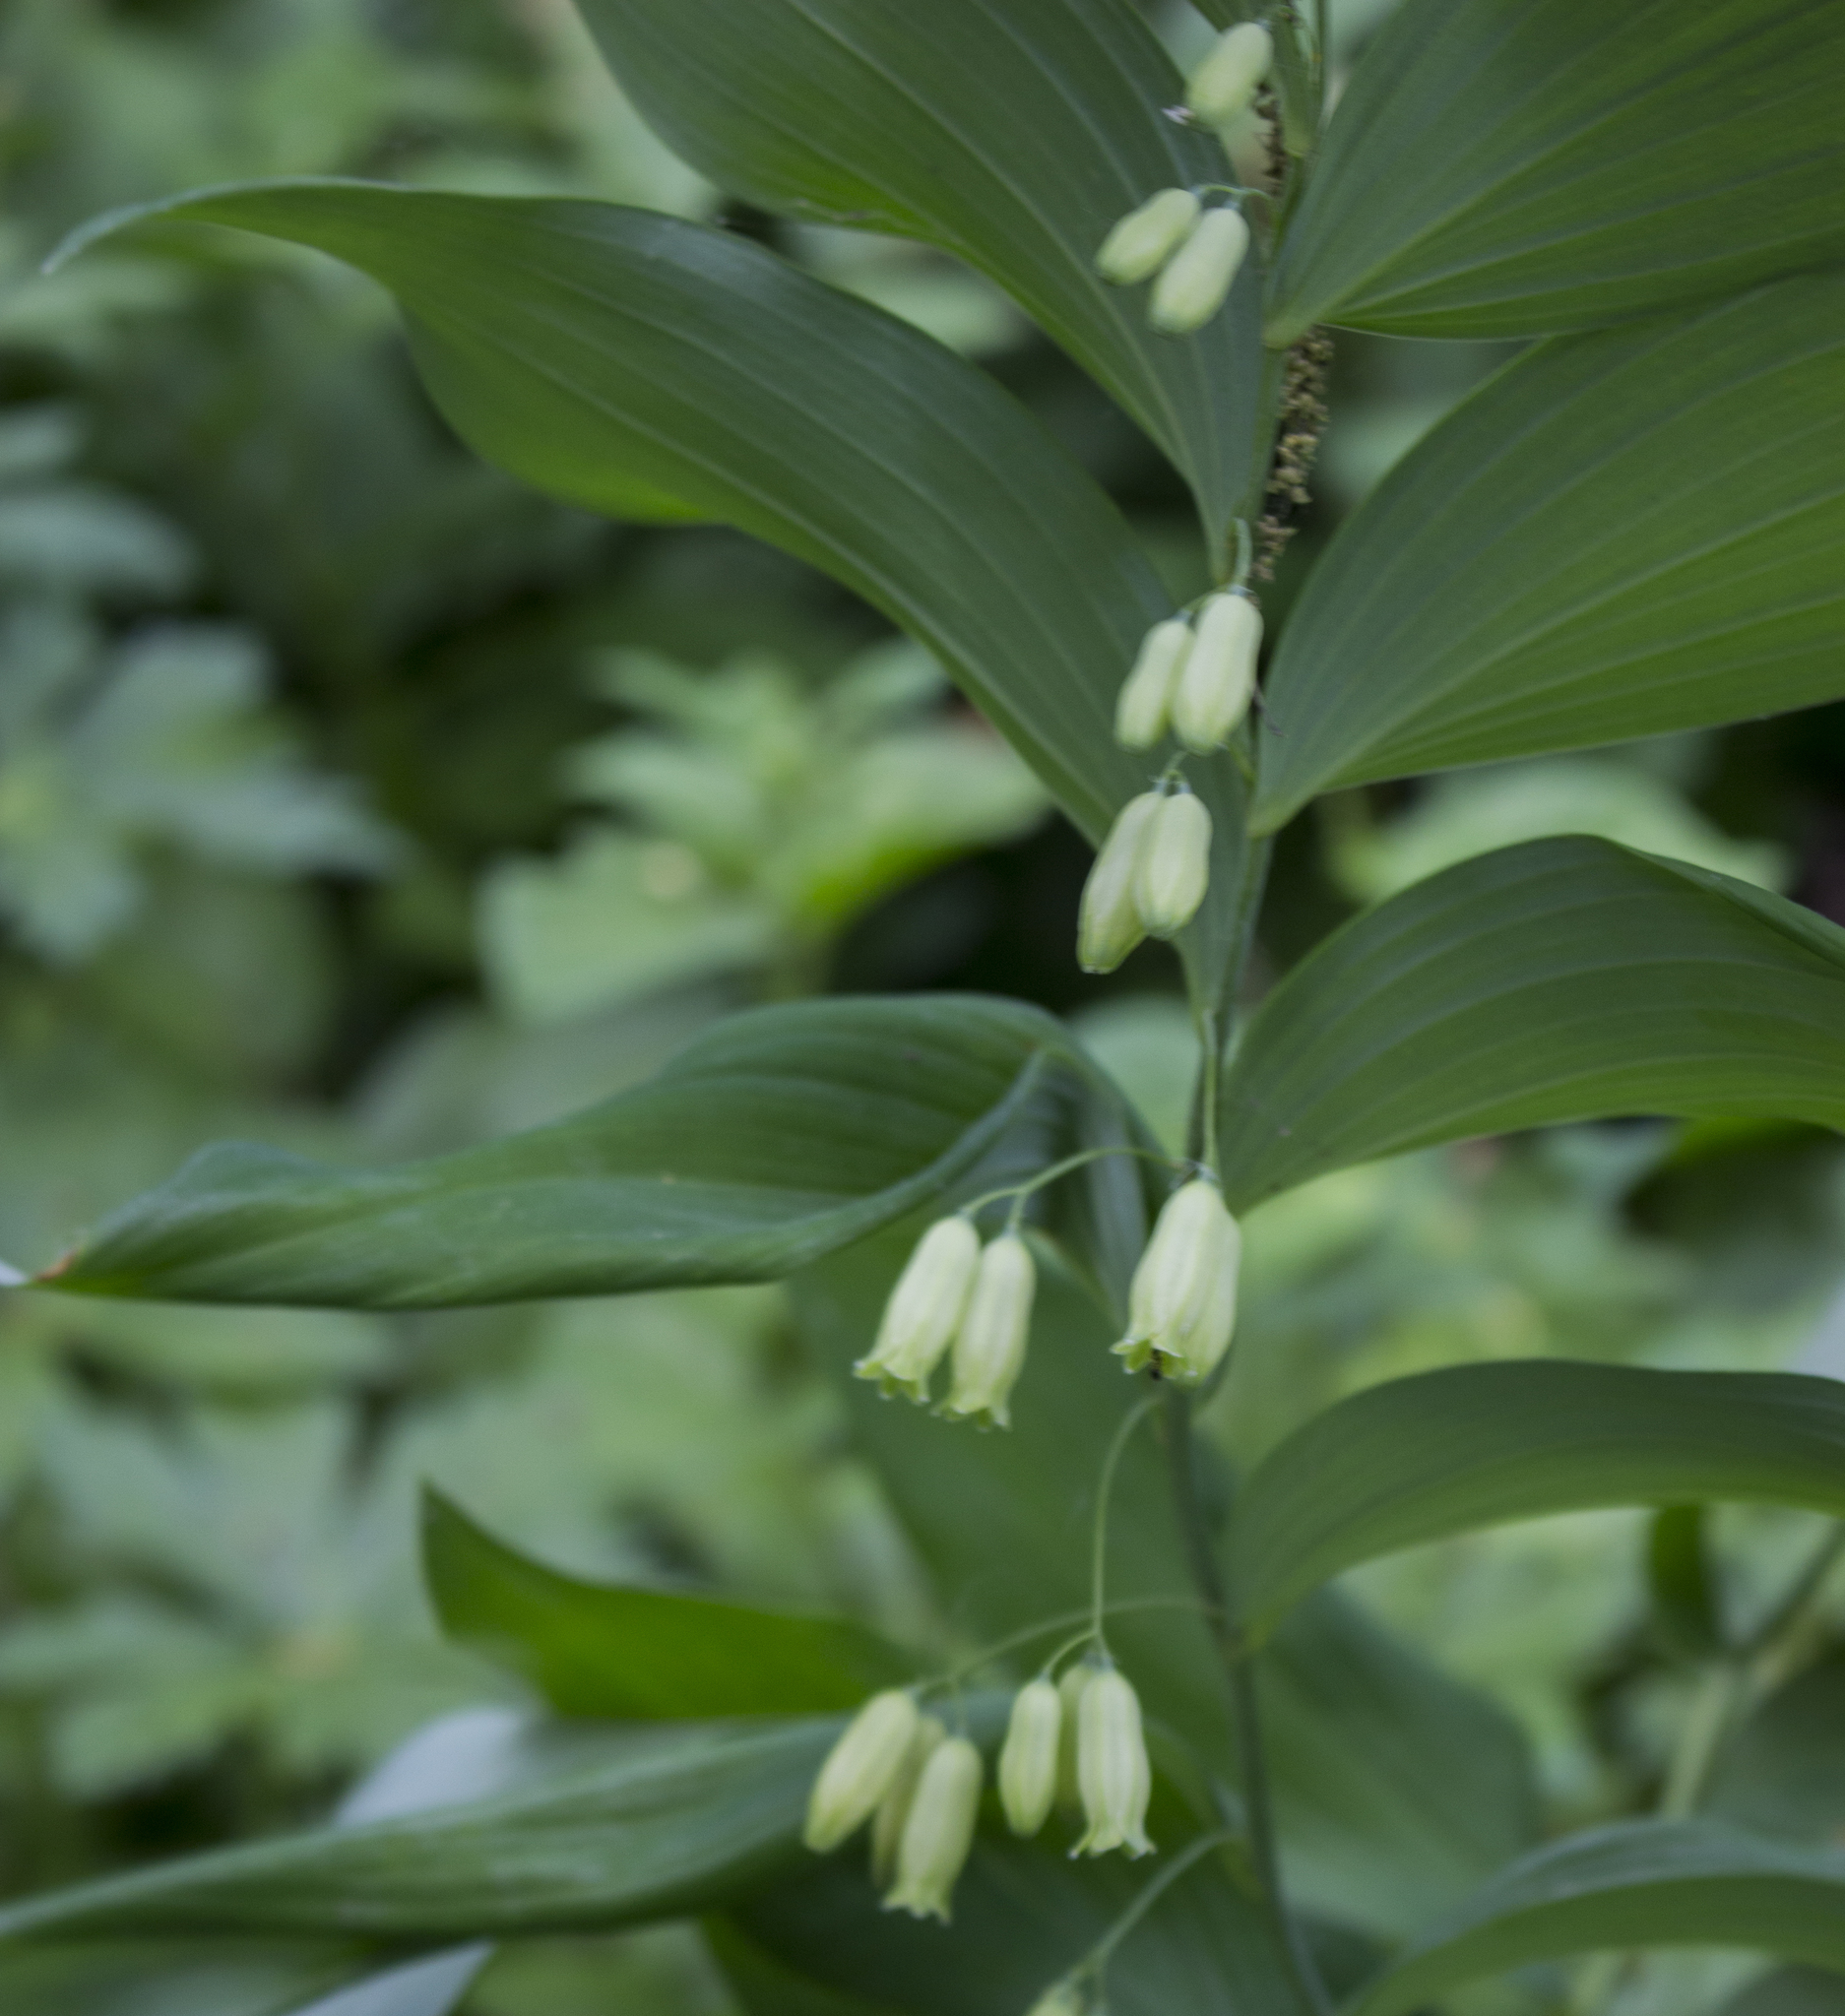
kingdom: Plantae
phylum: Tracheophyta
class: Liliopsida
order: Asparagales
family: Asparagaceae
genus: Polygonatum
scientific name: Polygonatum biflorum
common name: American solomon's-seal
